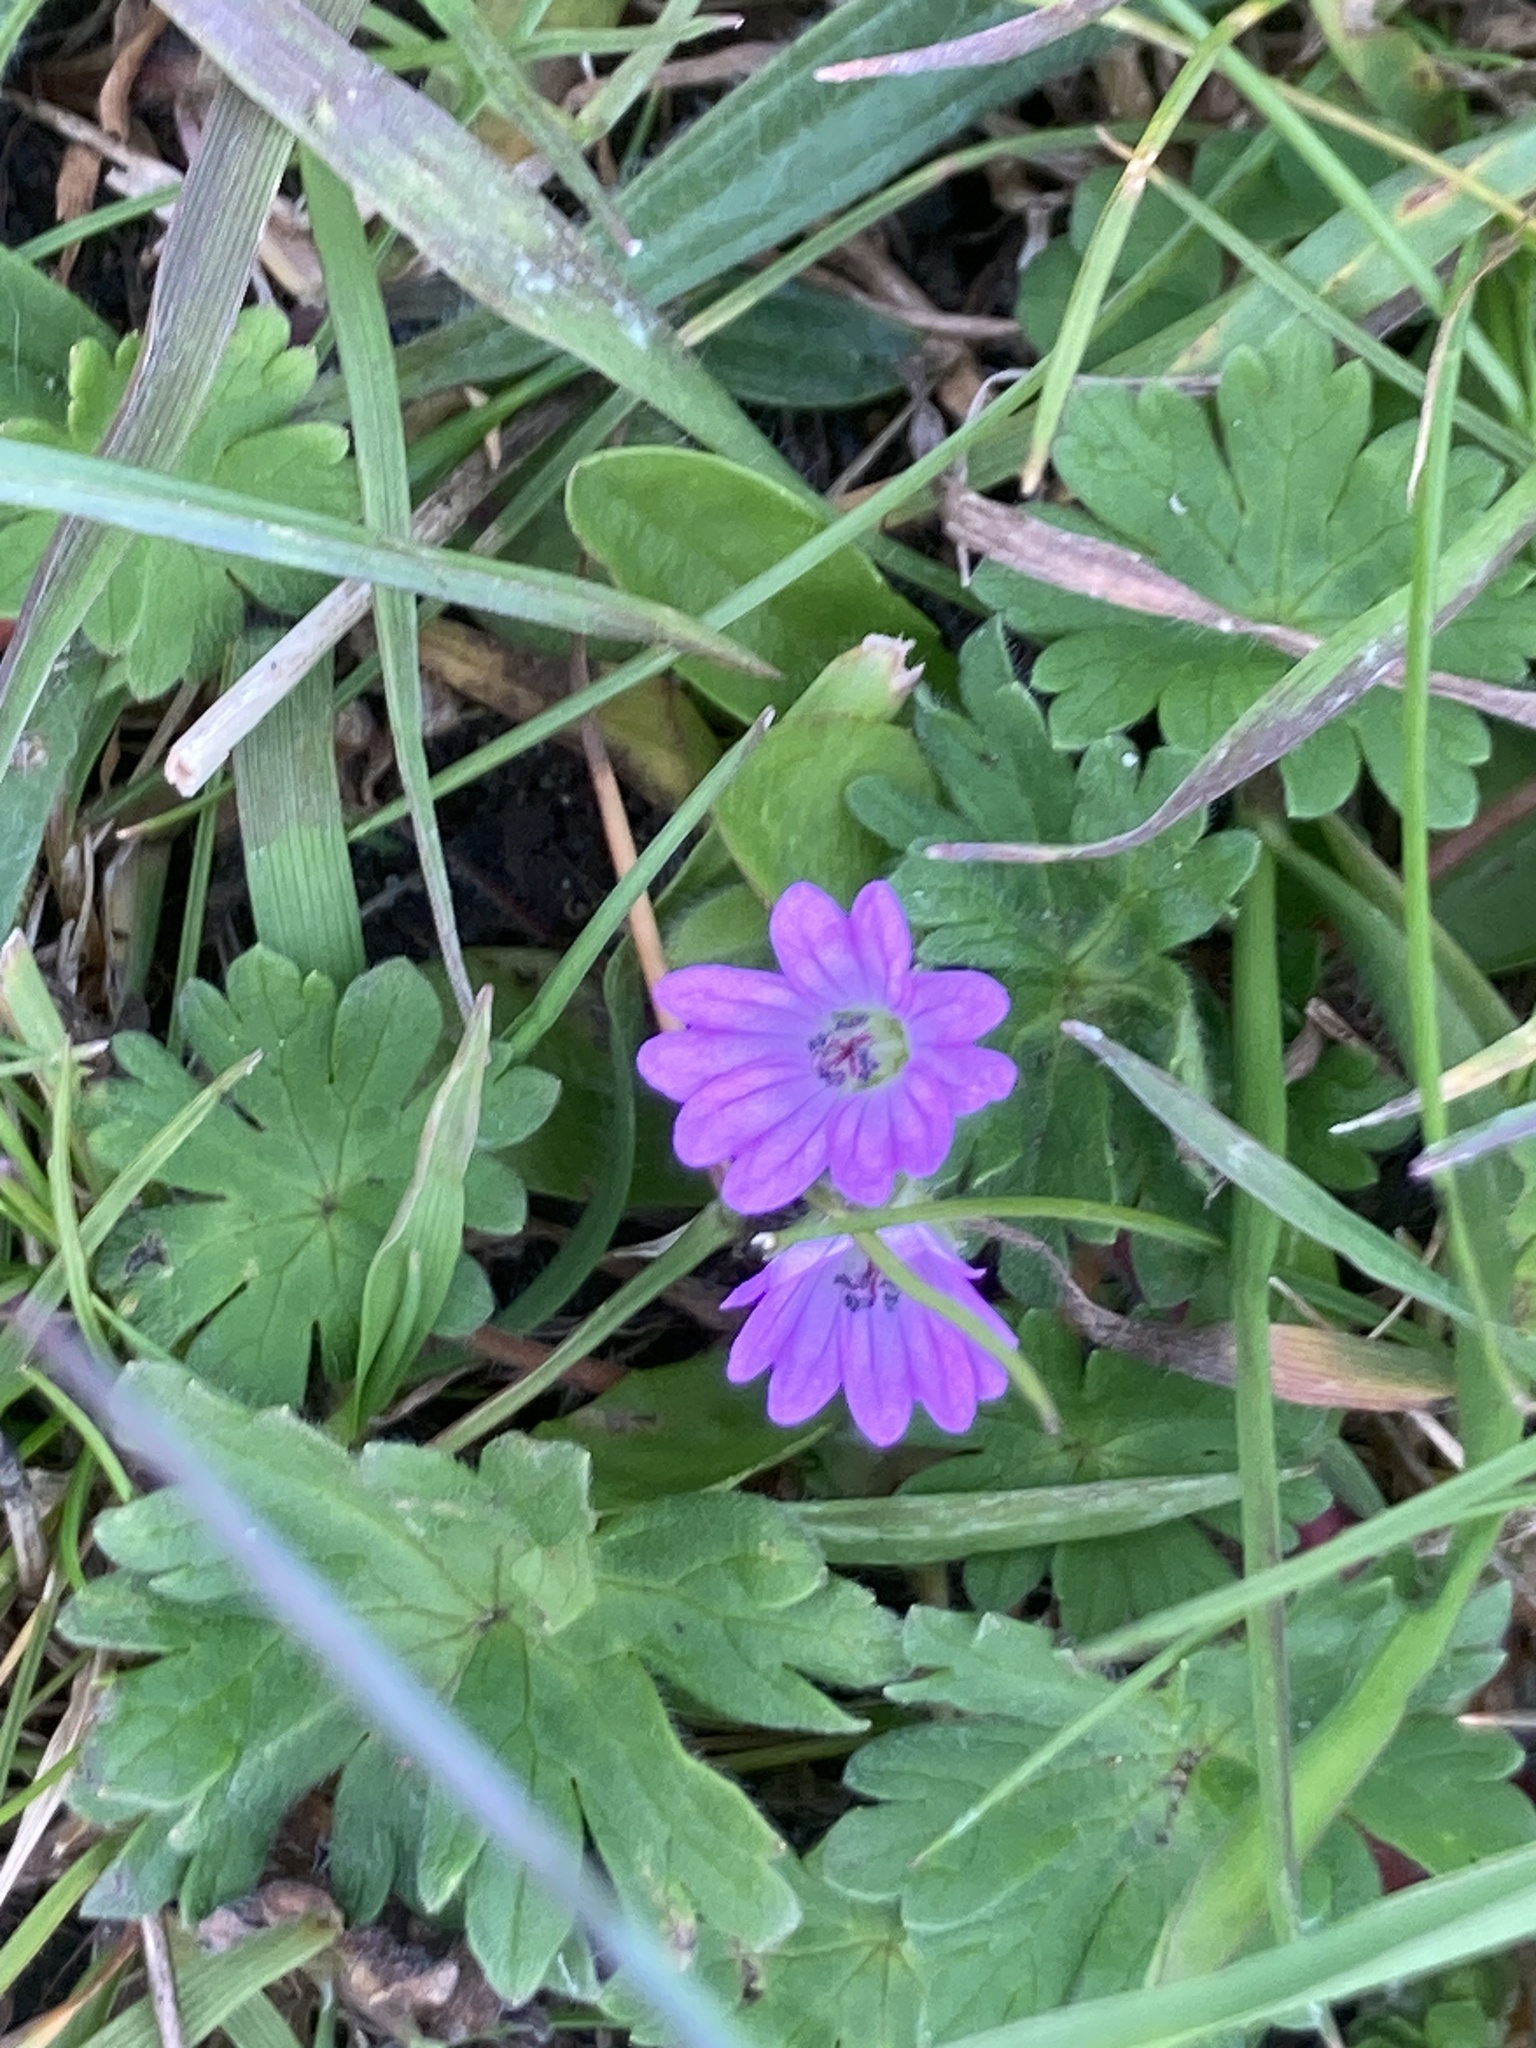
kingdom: Plantae
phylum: Tracheophyta
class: Magnoliopsida
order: Geraniales
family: Geraniaceae
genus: Geranium
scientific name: Geranium molle
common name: Dove's-foot crane's-bill
